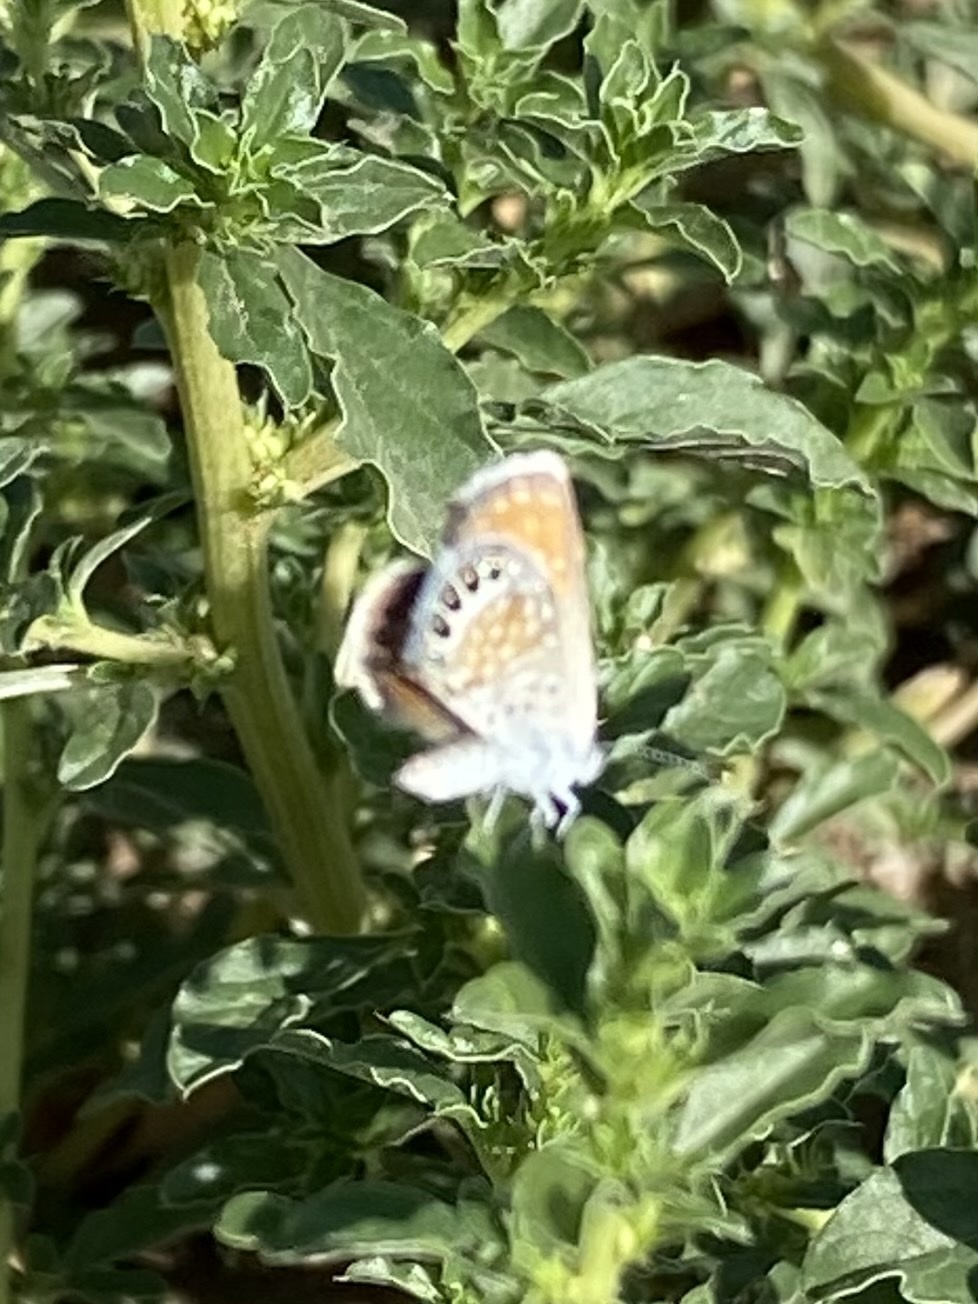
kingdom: Animalia
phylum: Arthropoda
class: Insecta
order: Lepidoptera
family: Lycaenidae
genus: Brephidium
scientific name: Brephidium exilis
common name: Pygmy blue
